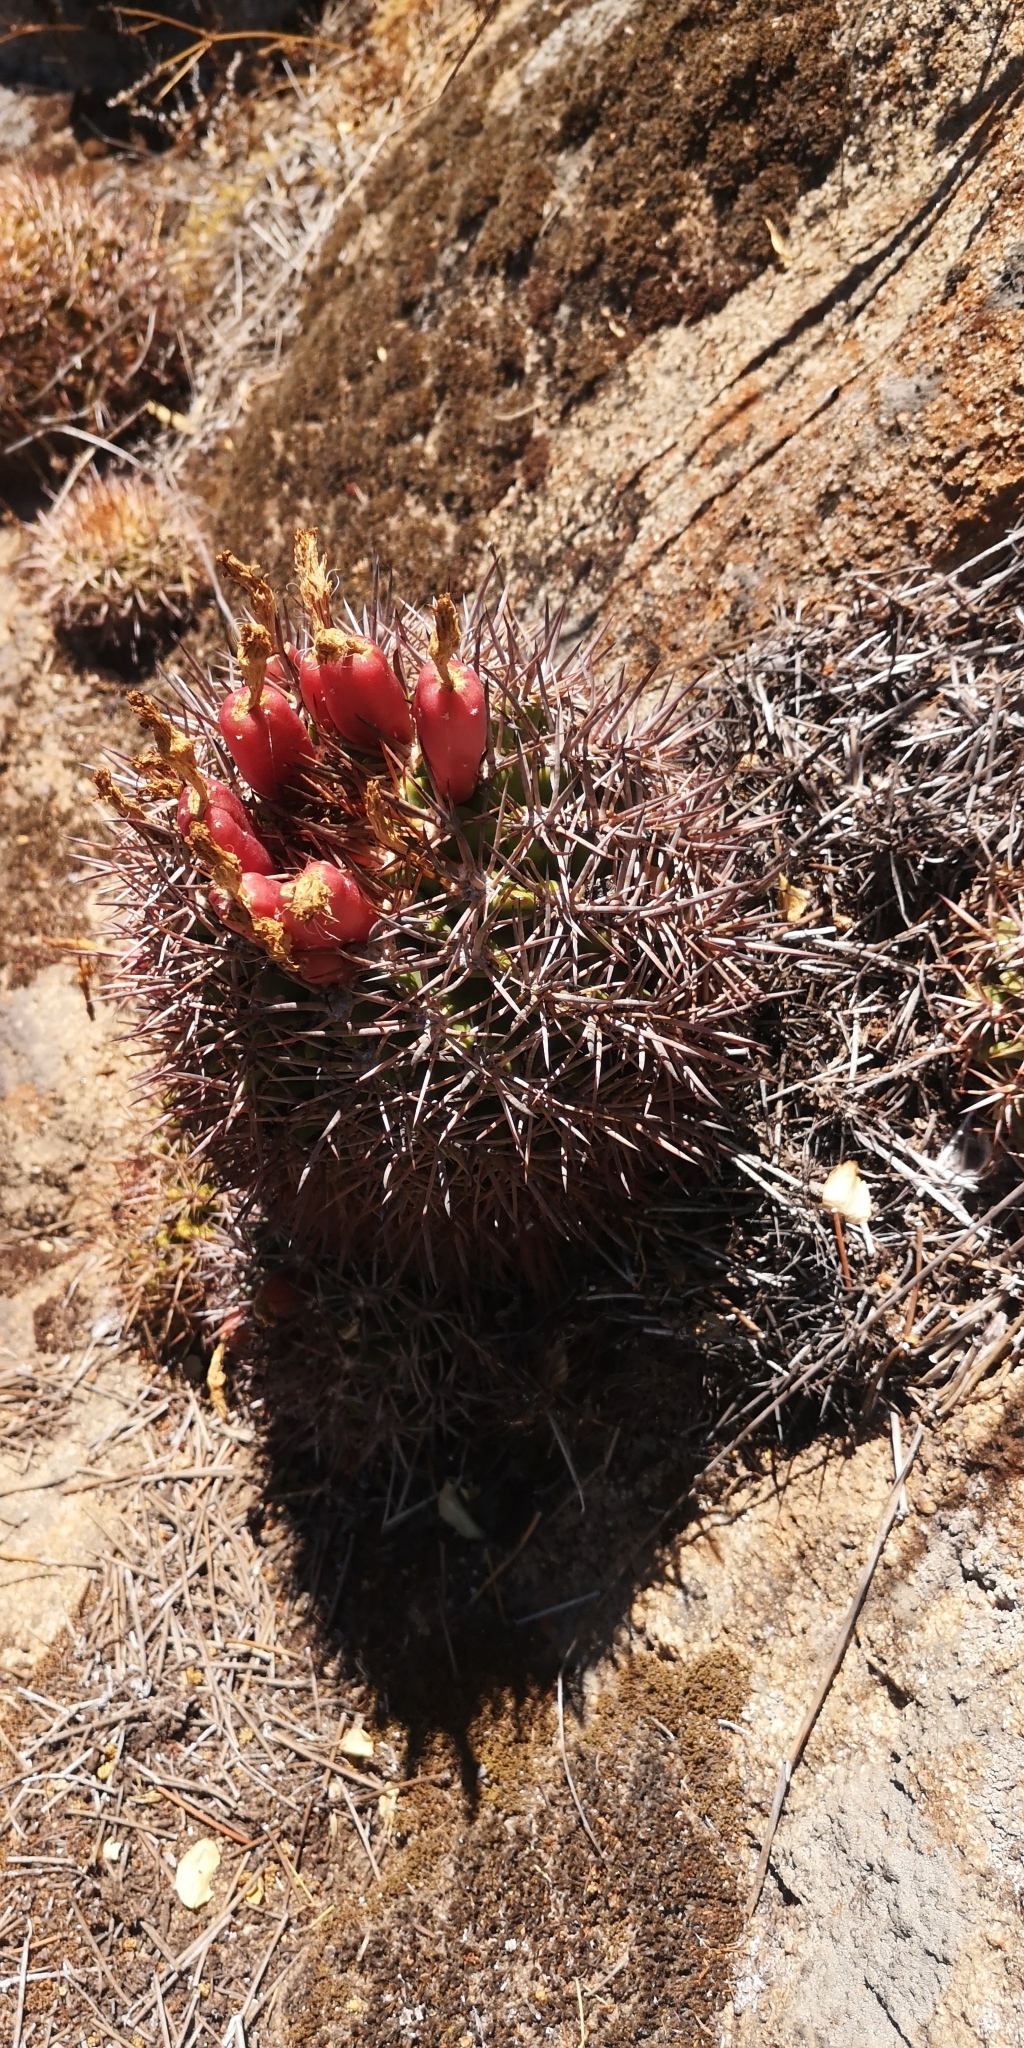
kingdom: Plantae
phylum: Tracheophyta
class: Magnoliopsida
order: Caryophyllales
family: Cactaceae
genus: Eriosyce
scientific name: Eriosyce armata
